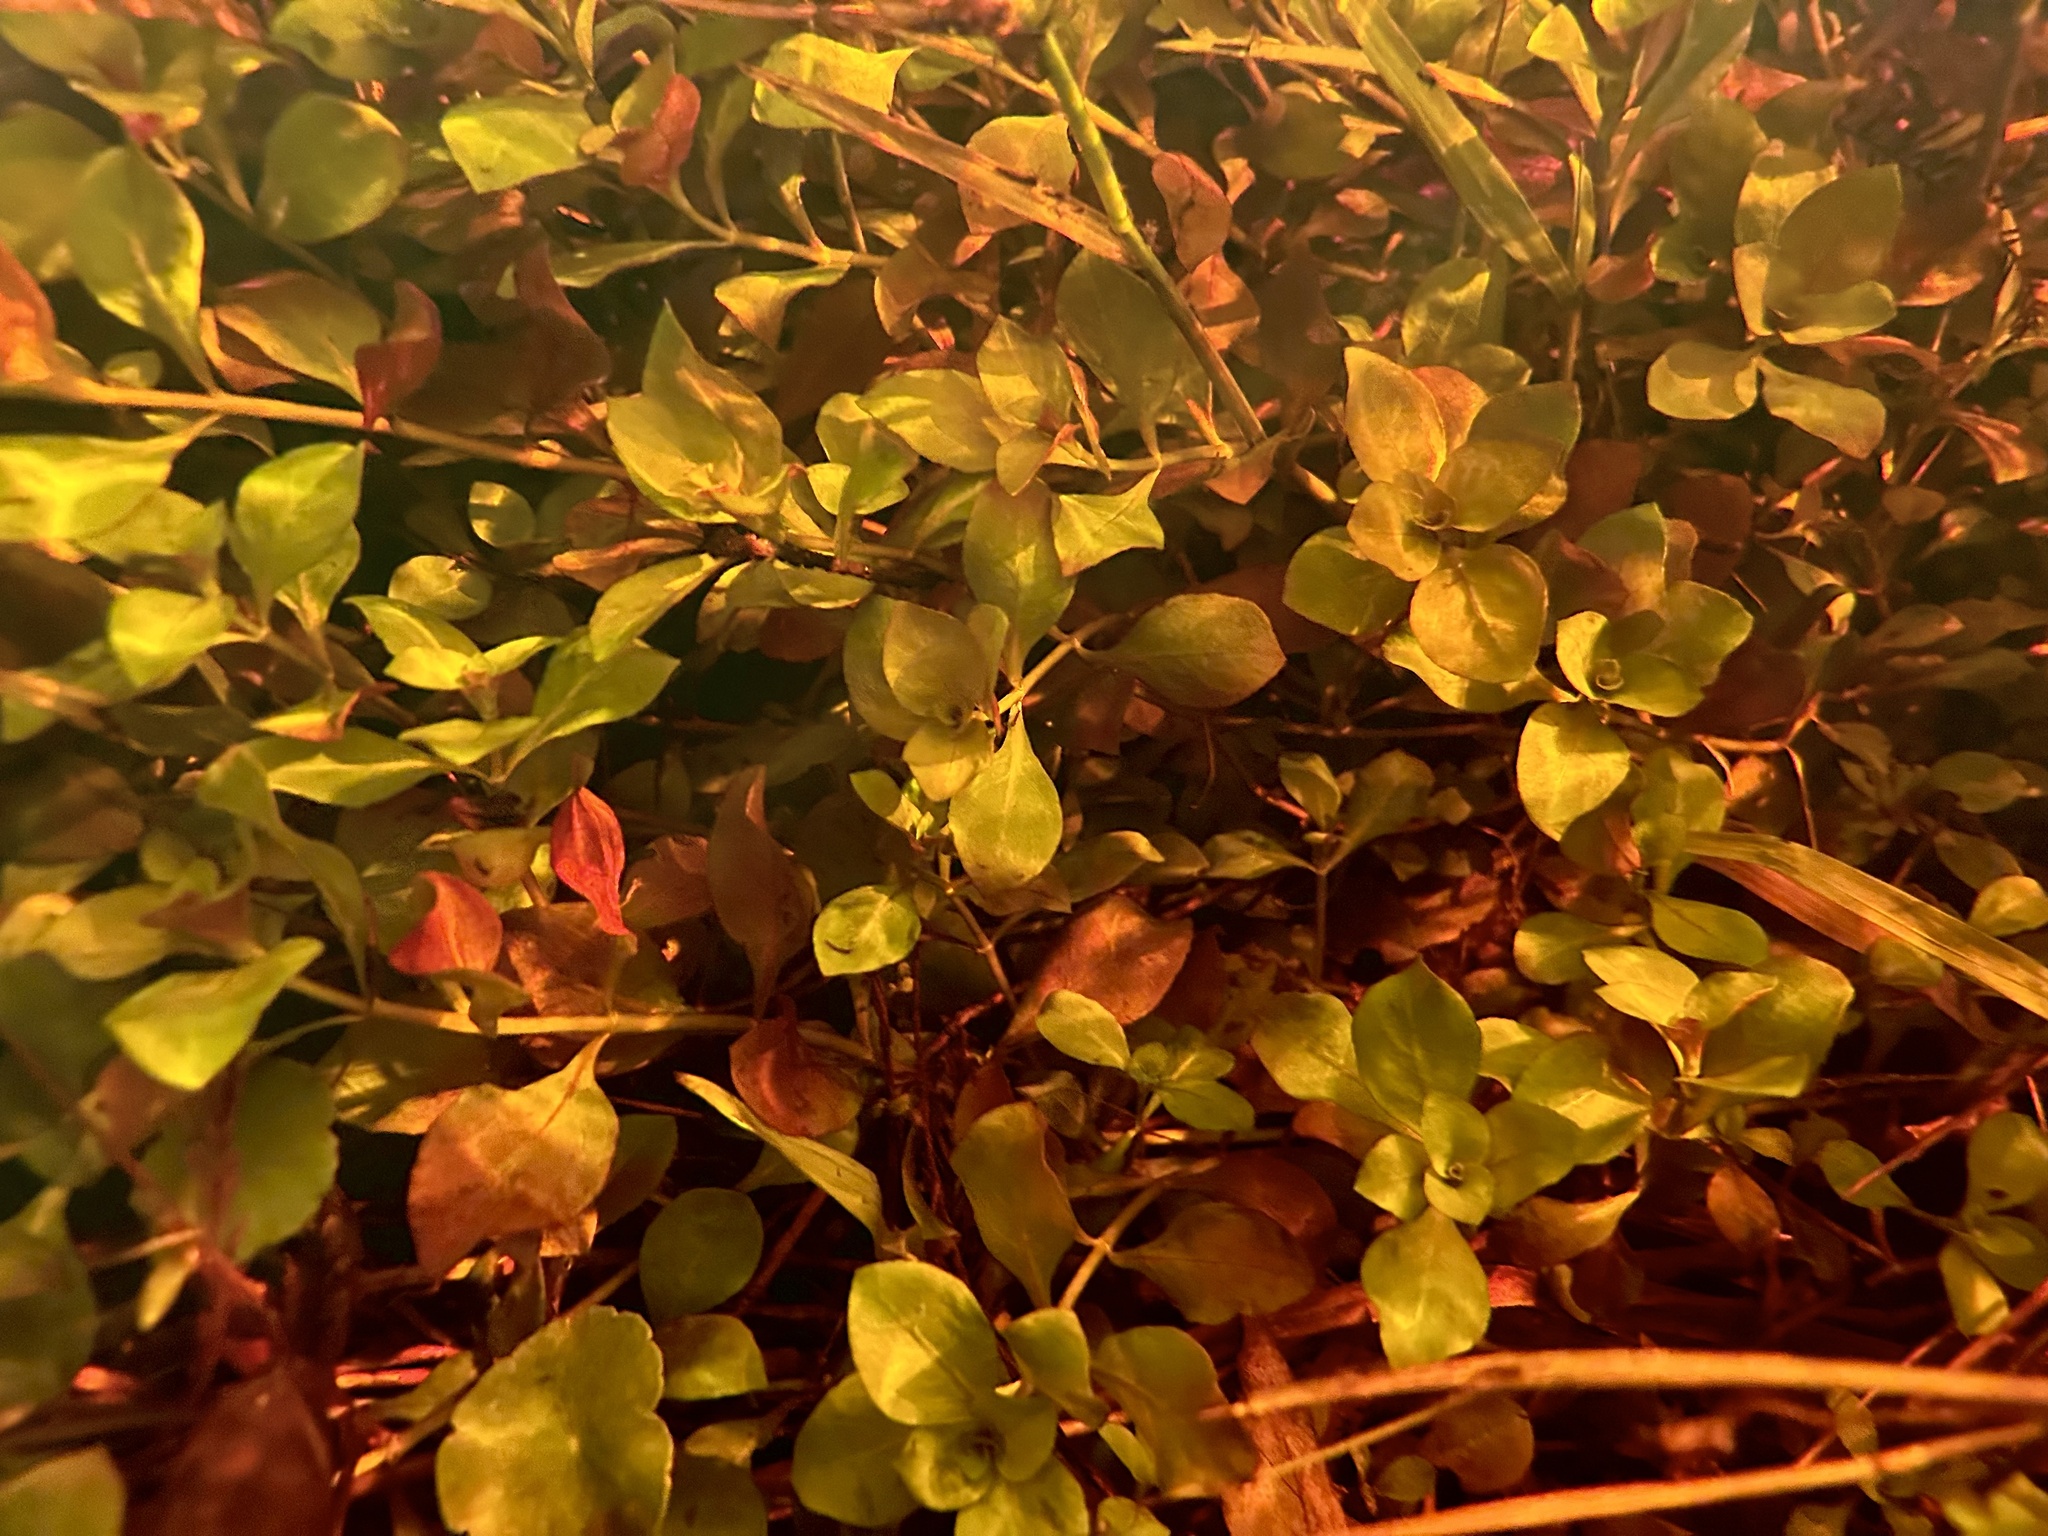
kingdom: Plantae
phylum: Tracheophyta
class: Magnoliopsida
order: Myrtales
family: Onagraceae
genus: Ludwigia
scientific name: Ludwigia repens
